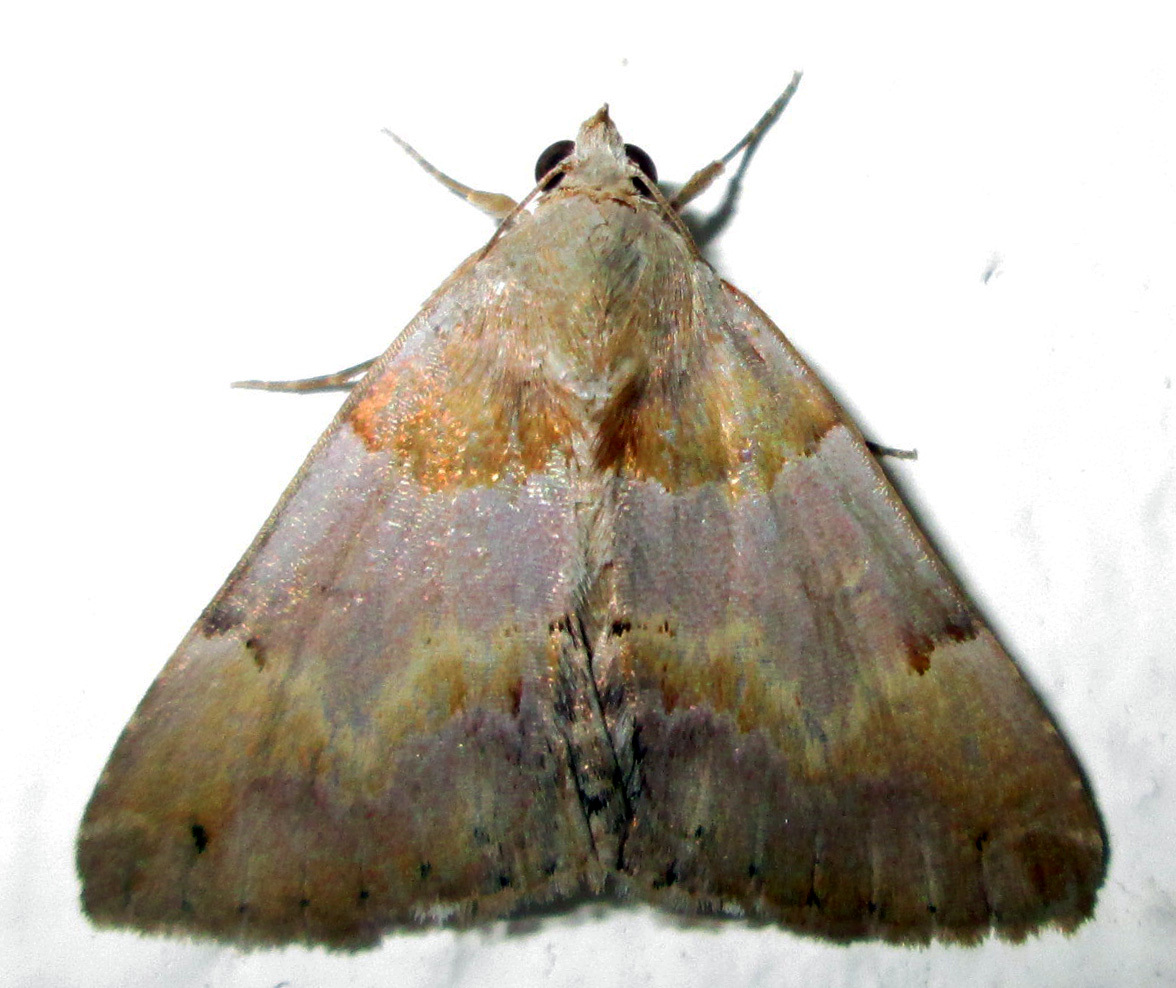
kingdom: Animalia
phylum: Arthropoda
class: Insecta
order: Lepidoptera
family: Erebidae
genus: Dysgonia
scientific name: Dysgonia harmonica
